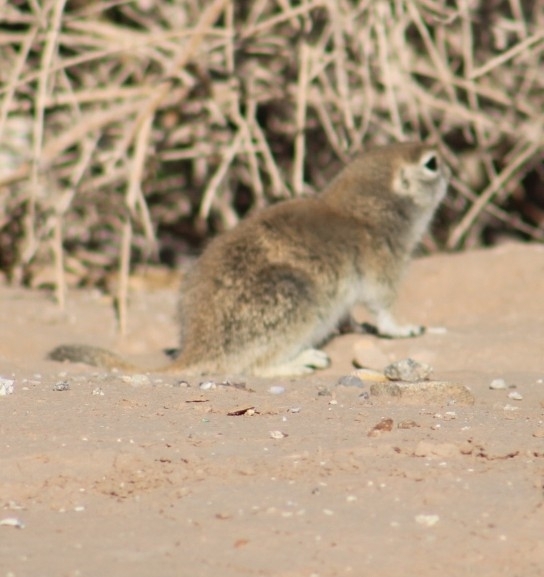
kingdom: Animalia
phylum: Chordata
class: Mammalia
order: Rodentia
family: Sciuridae
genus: Xerospermophilus
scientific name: Xerospermophilus tereticaudus
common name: Round-tailed ground squirrel
